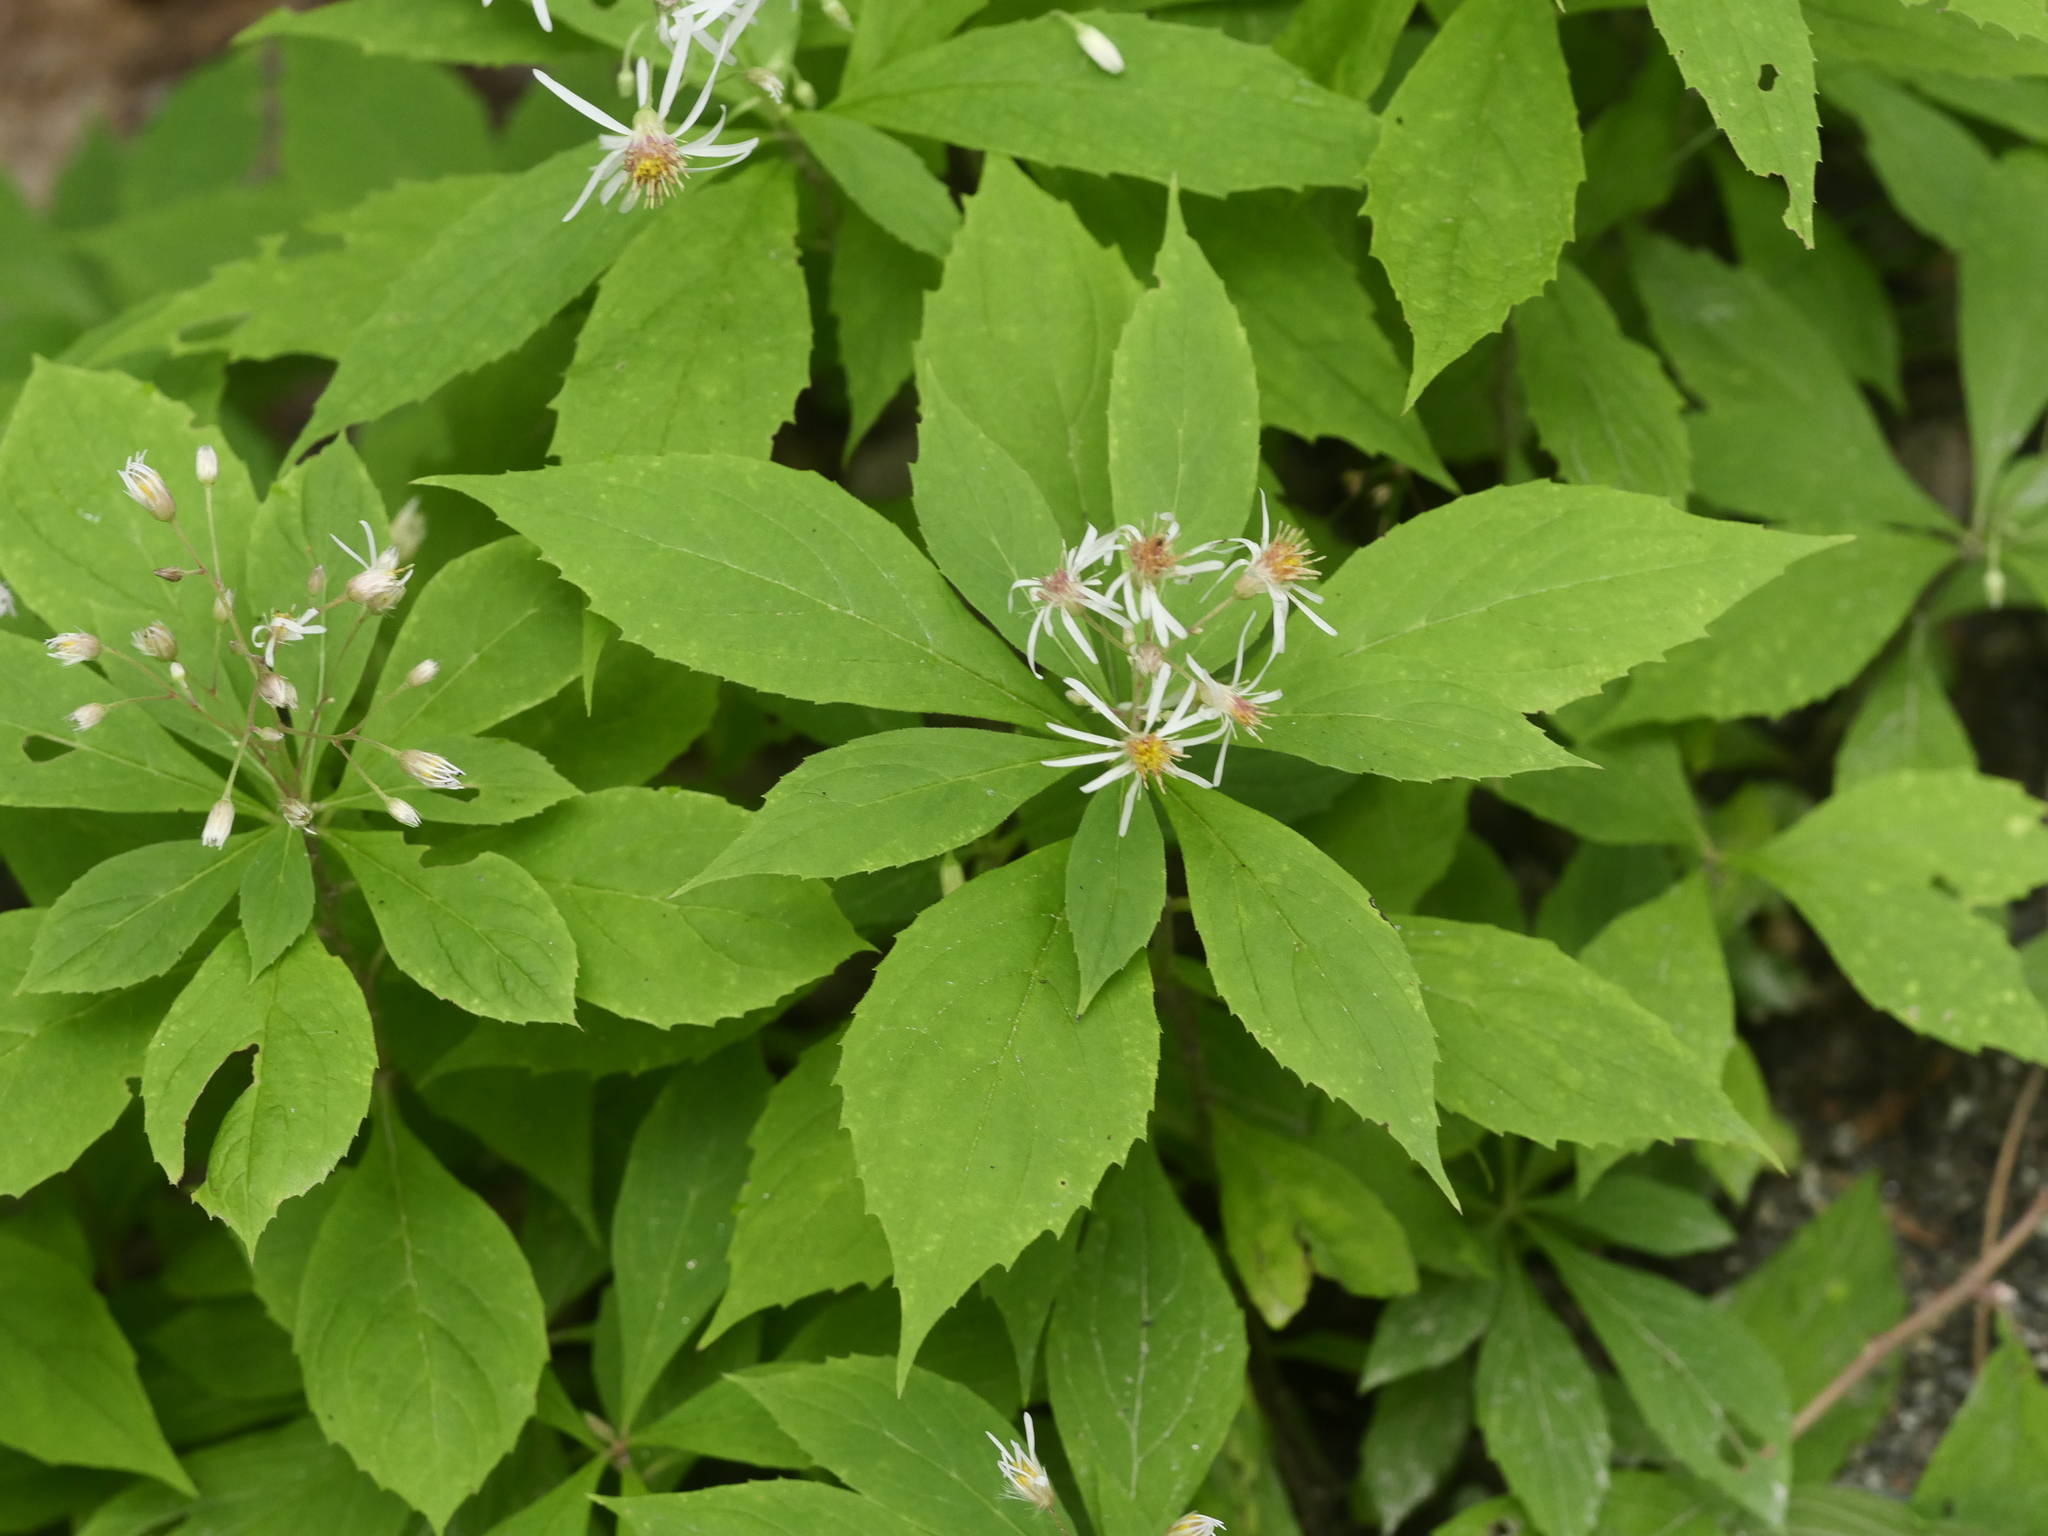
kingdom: Plantae
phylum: Tracheophyta
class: Magnoliopsida
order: Asterales
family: Asteraceae
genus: Oclemena
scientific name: Oclemena acuminata
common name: Mountain aster
